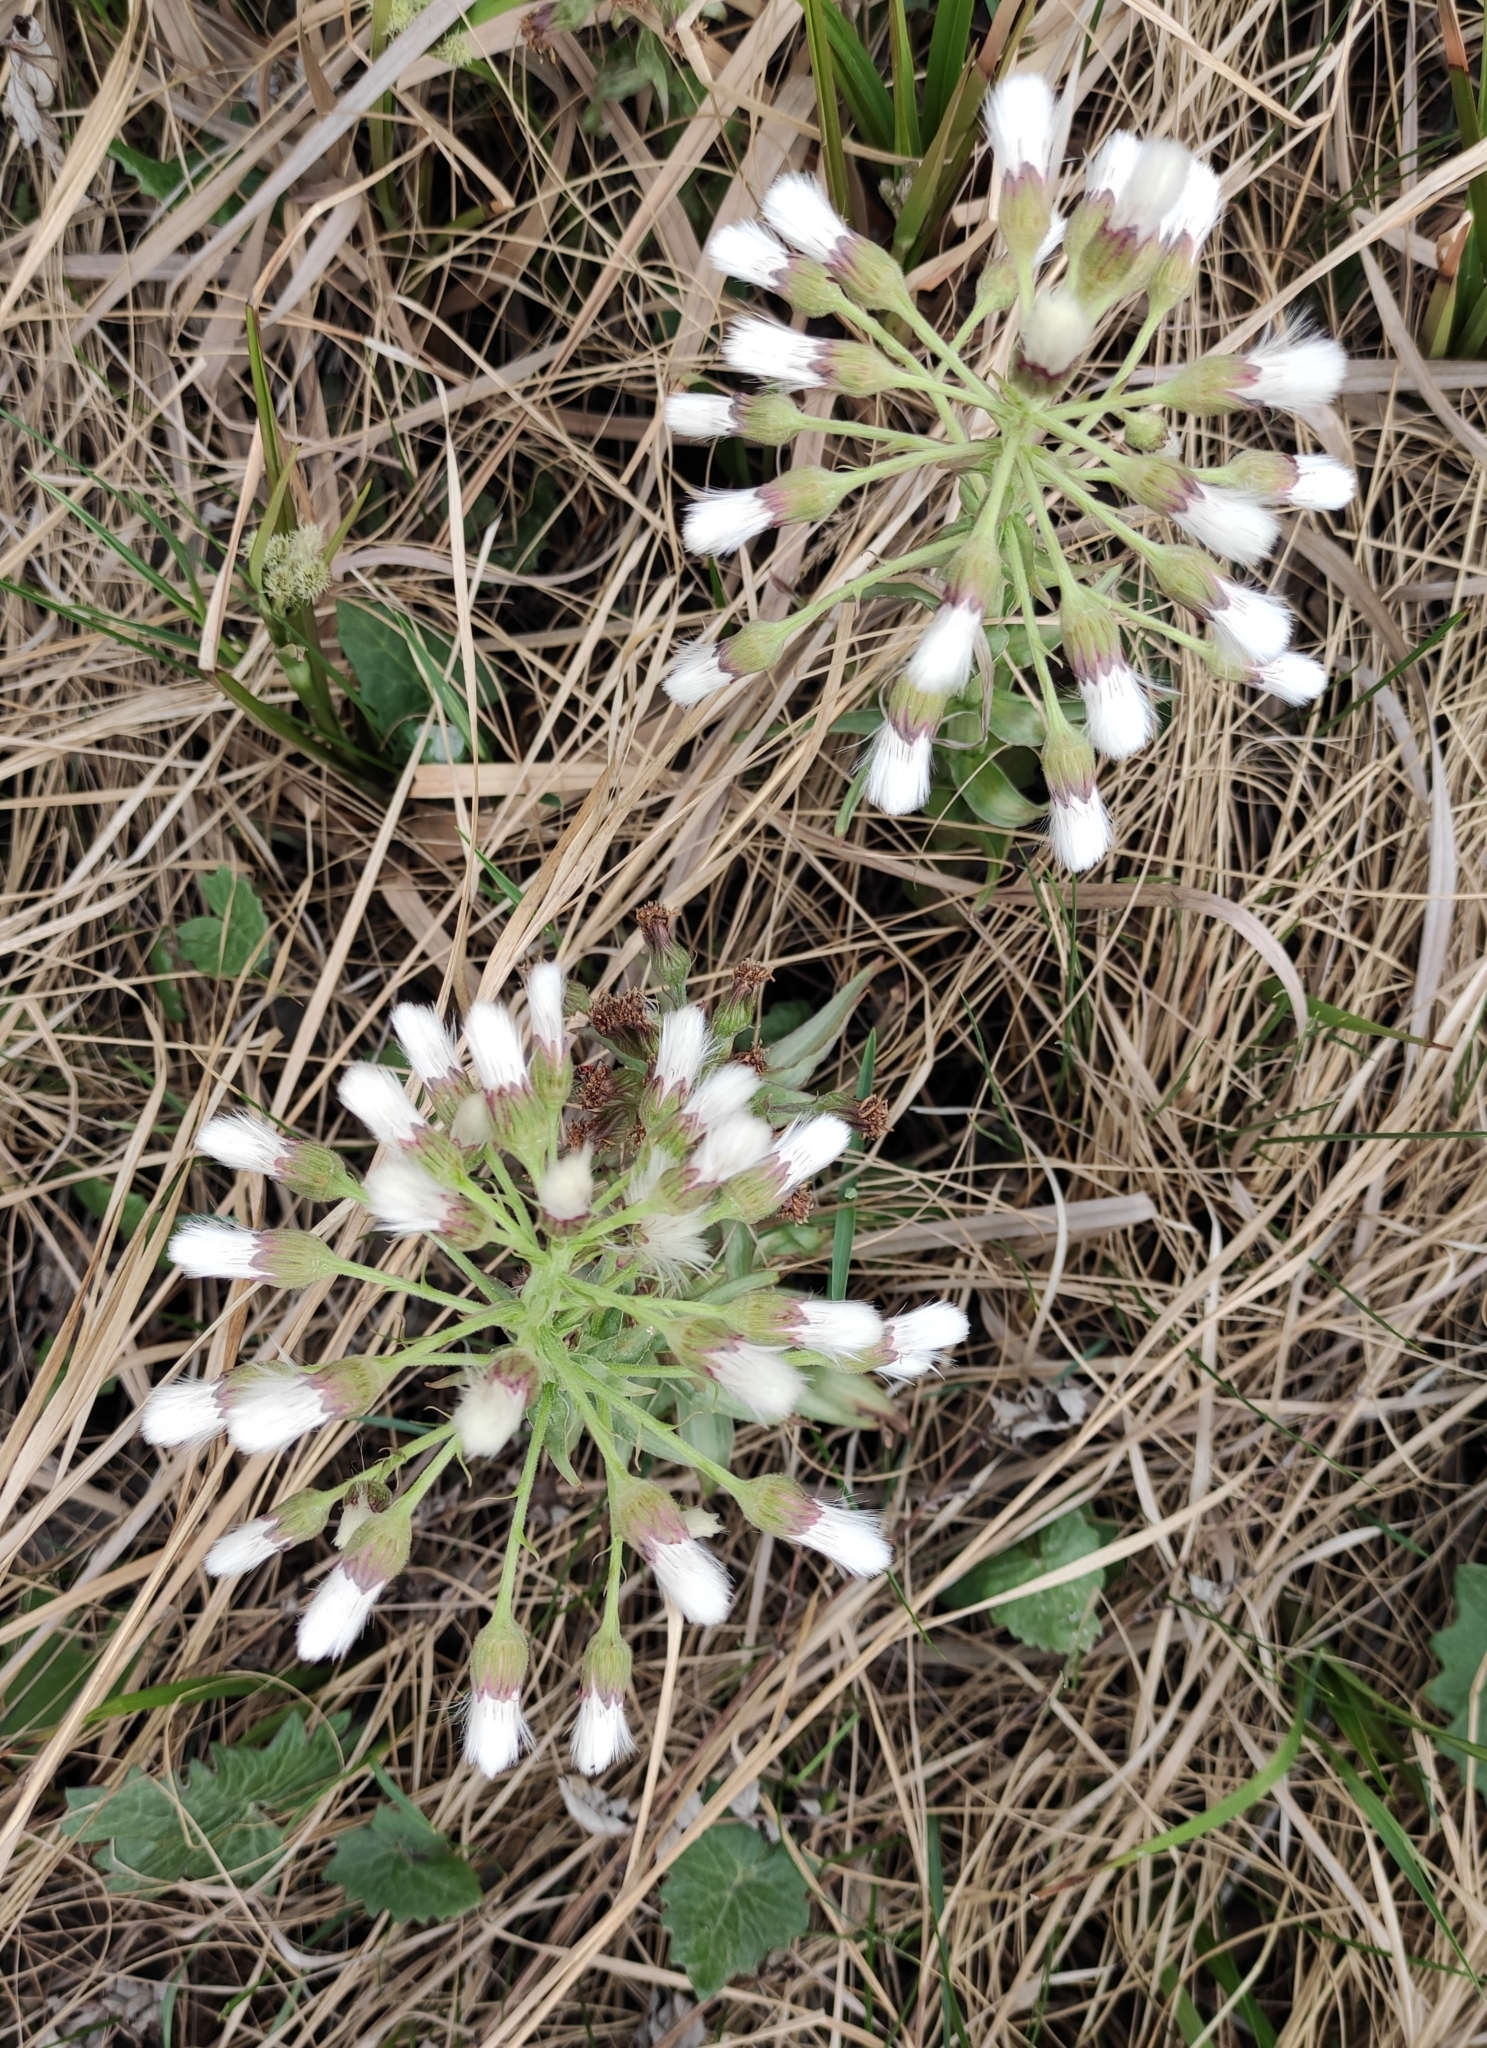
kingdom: Plantae
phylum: Tracheophyta
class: Magnoliopsida
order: Asterales
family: Asteraceae
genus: Petasites
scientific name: Petasites frigidus
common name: Arctic butterbur
